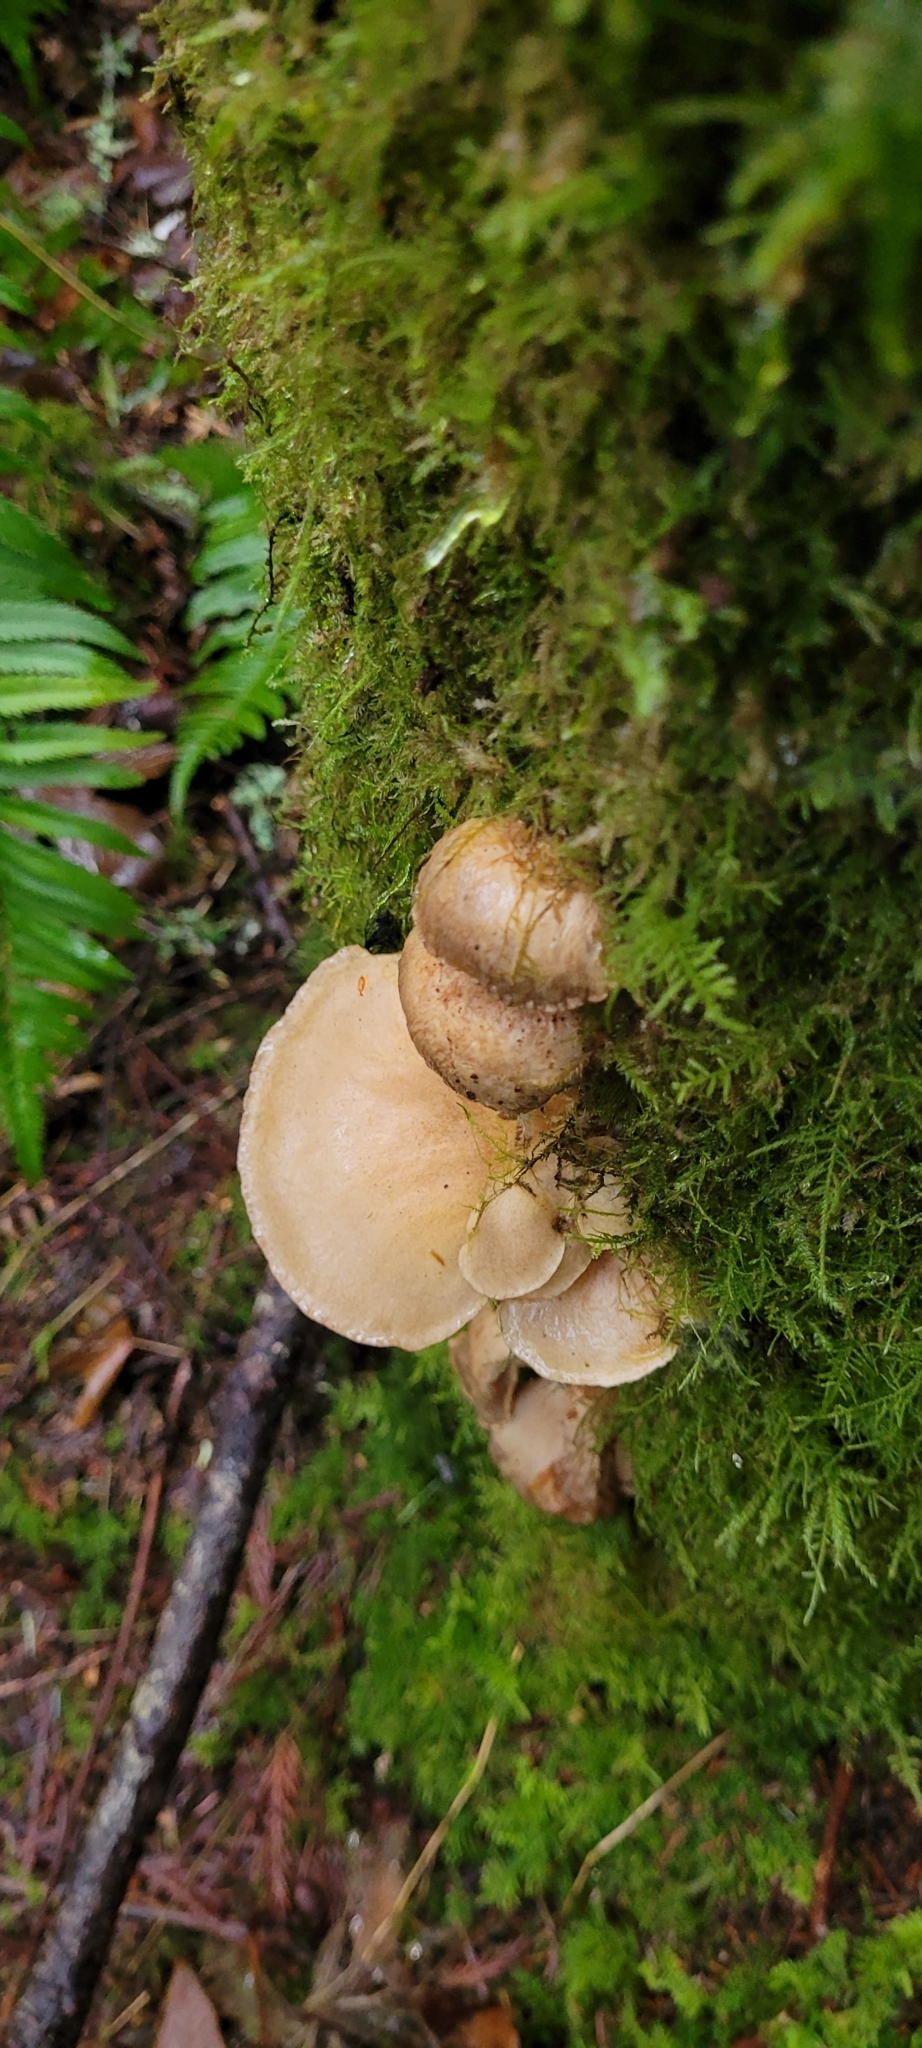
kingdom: Fungi
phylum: Basidiomycota
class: Agaricomycetes
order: Agaricales
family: Sarcomyxaceae
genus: Sarcomyxa
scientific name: Sarcomyxa serotina
